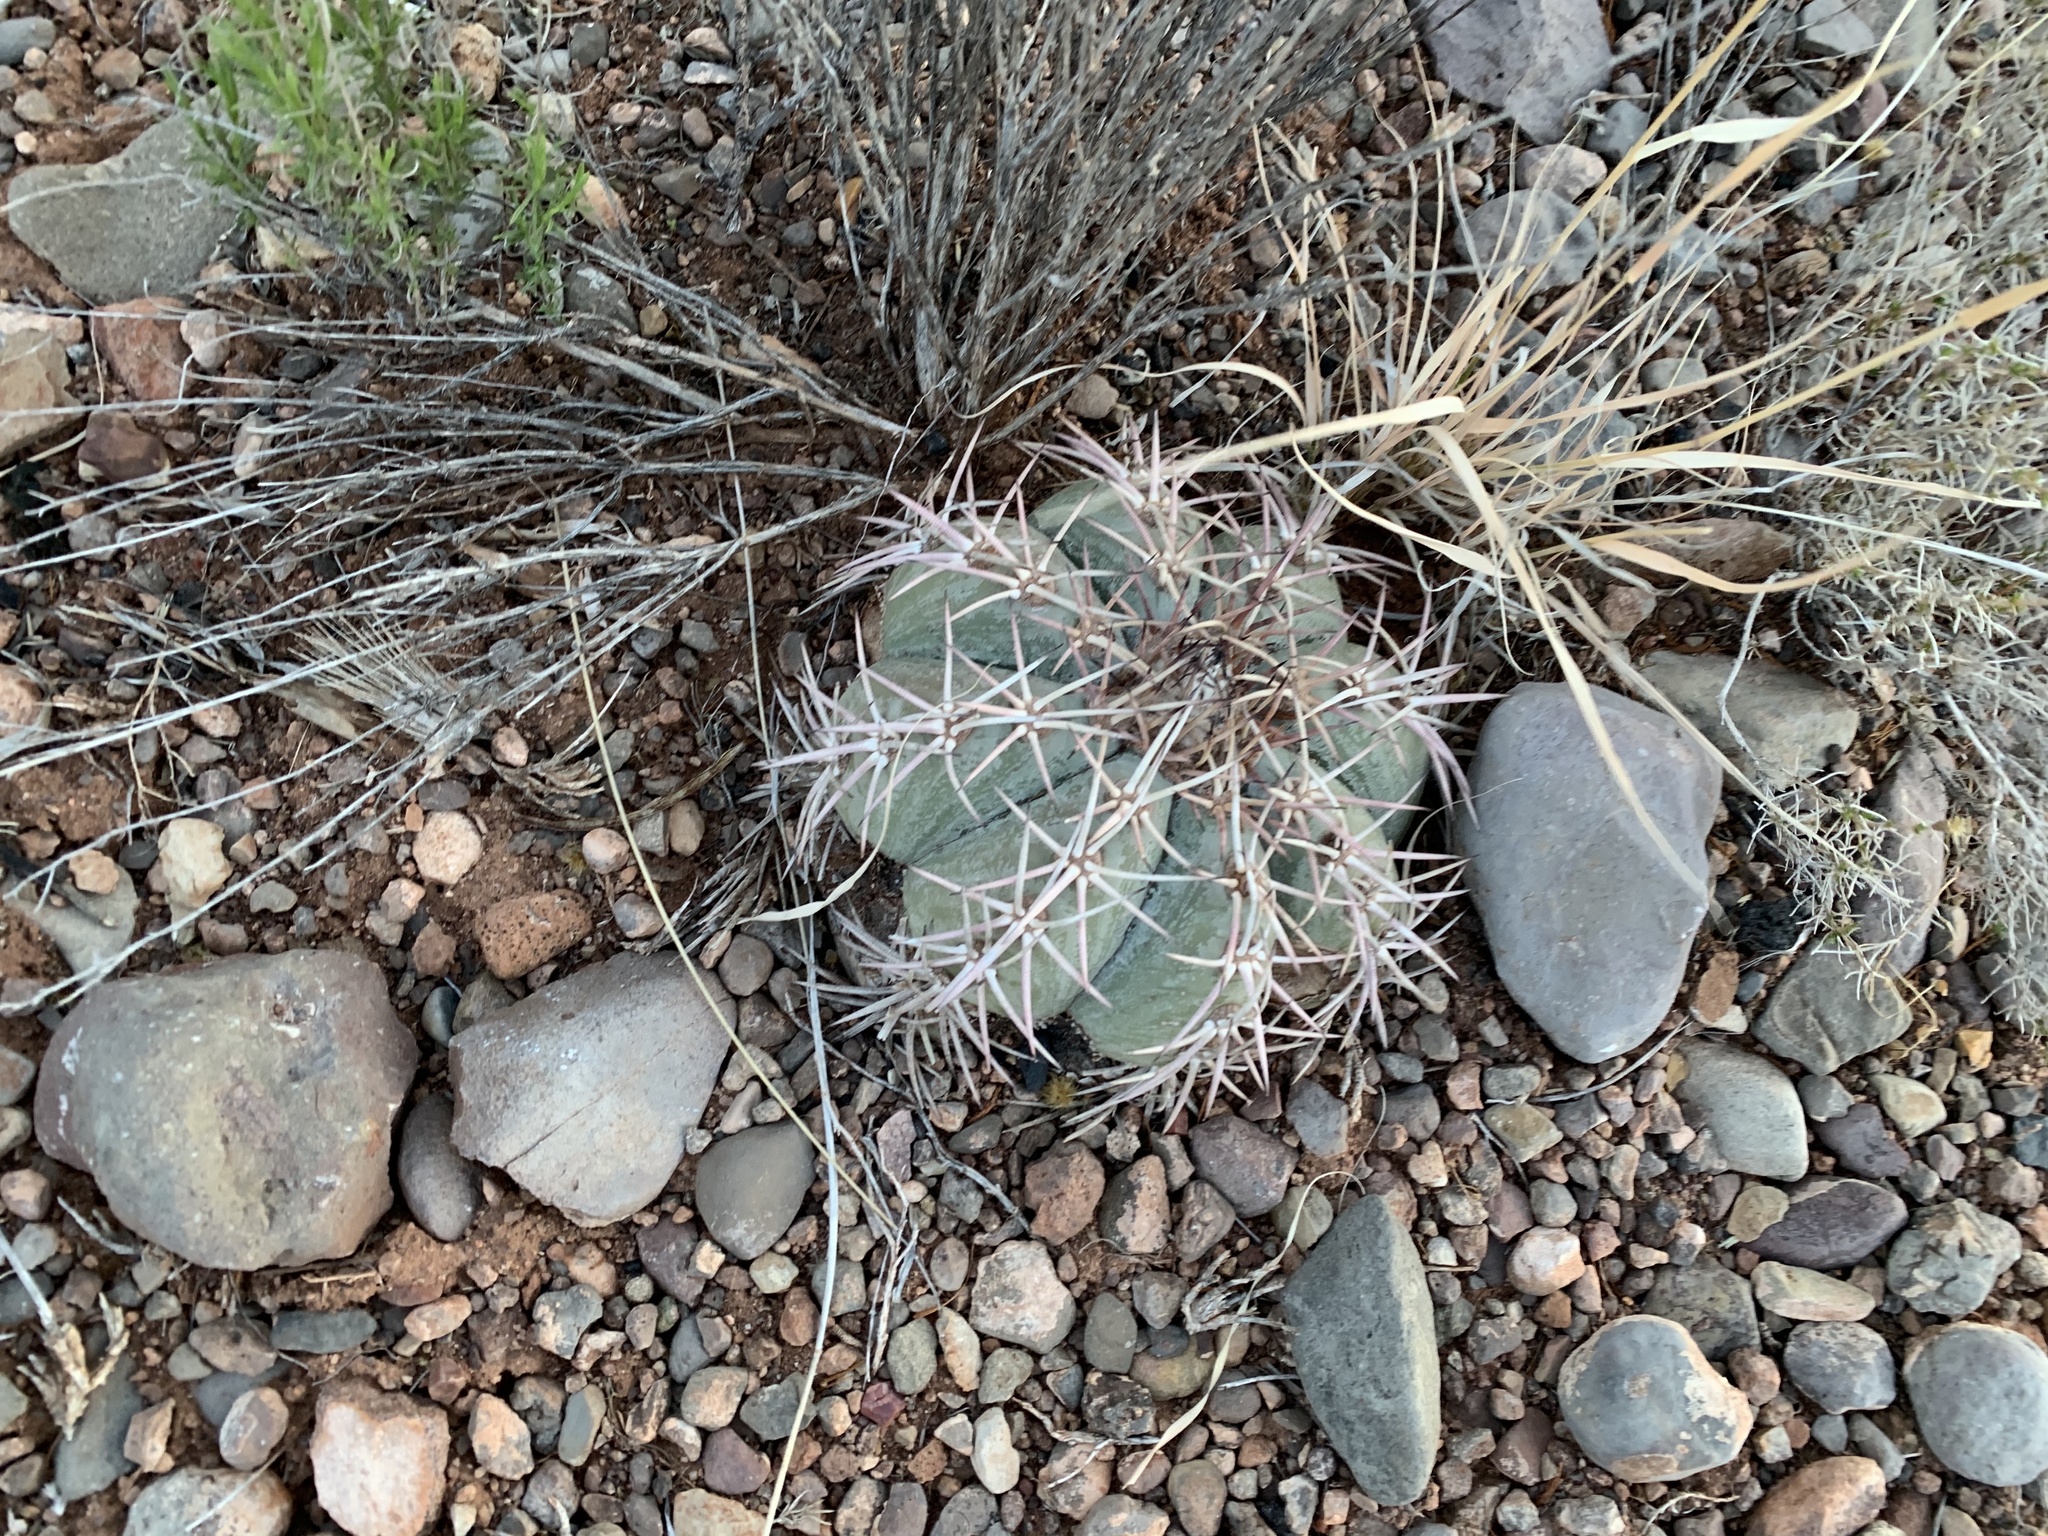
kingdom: Plantae
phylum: Tracheophyta
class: Magnoliopsida
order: Caryophyllales
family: Cactaceae
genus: Echinocactus
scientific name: Echinocactus horizonthalonius
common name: Devilshead
